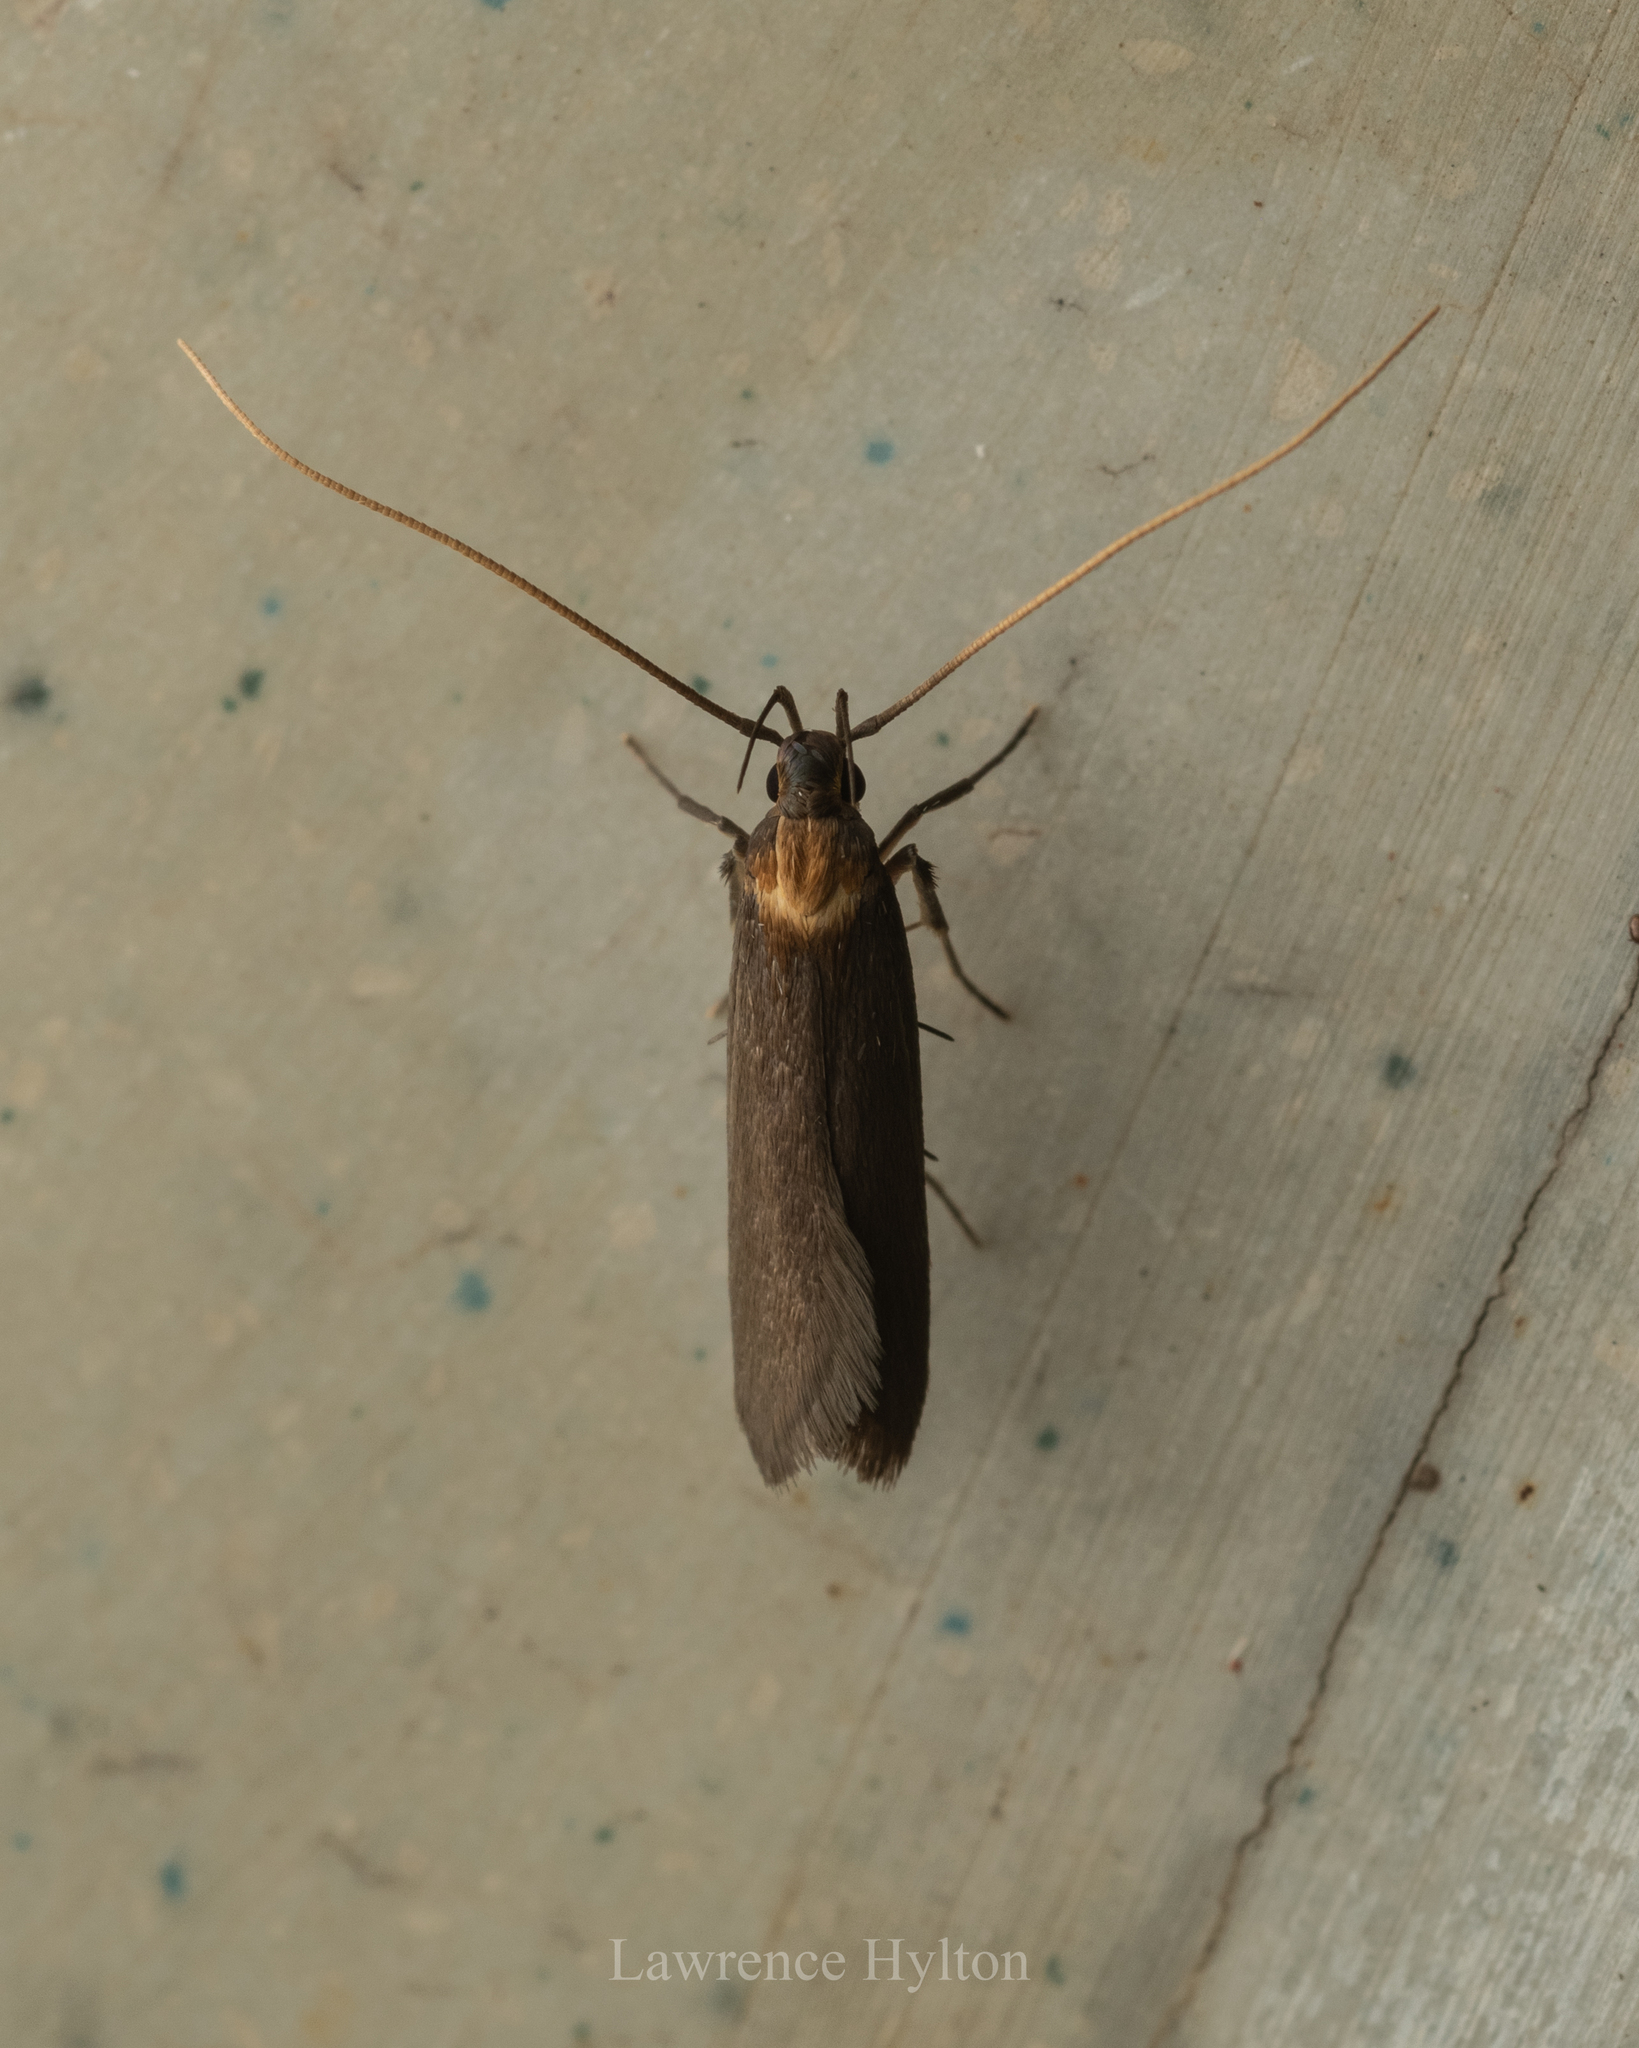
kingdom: Animalia
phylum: Arthropoda
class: Insecta
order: Lepidoptera
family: Lecithoceridae
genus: Tegenocharis
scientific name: Tegenocharis tenebrans
